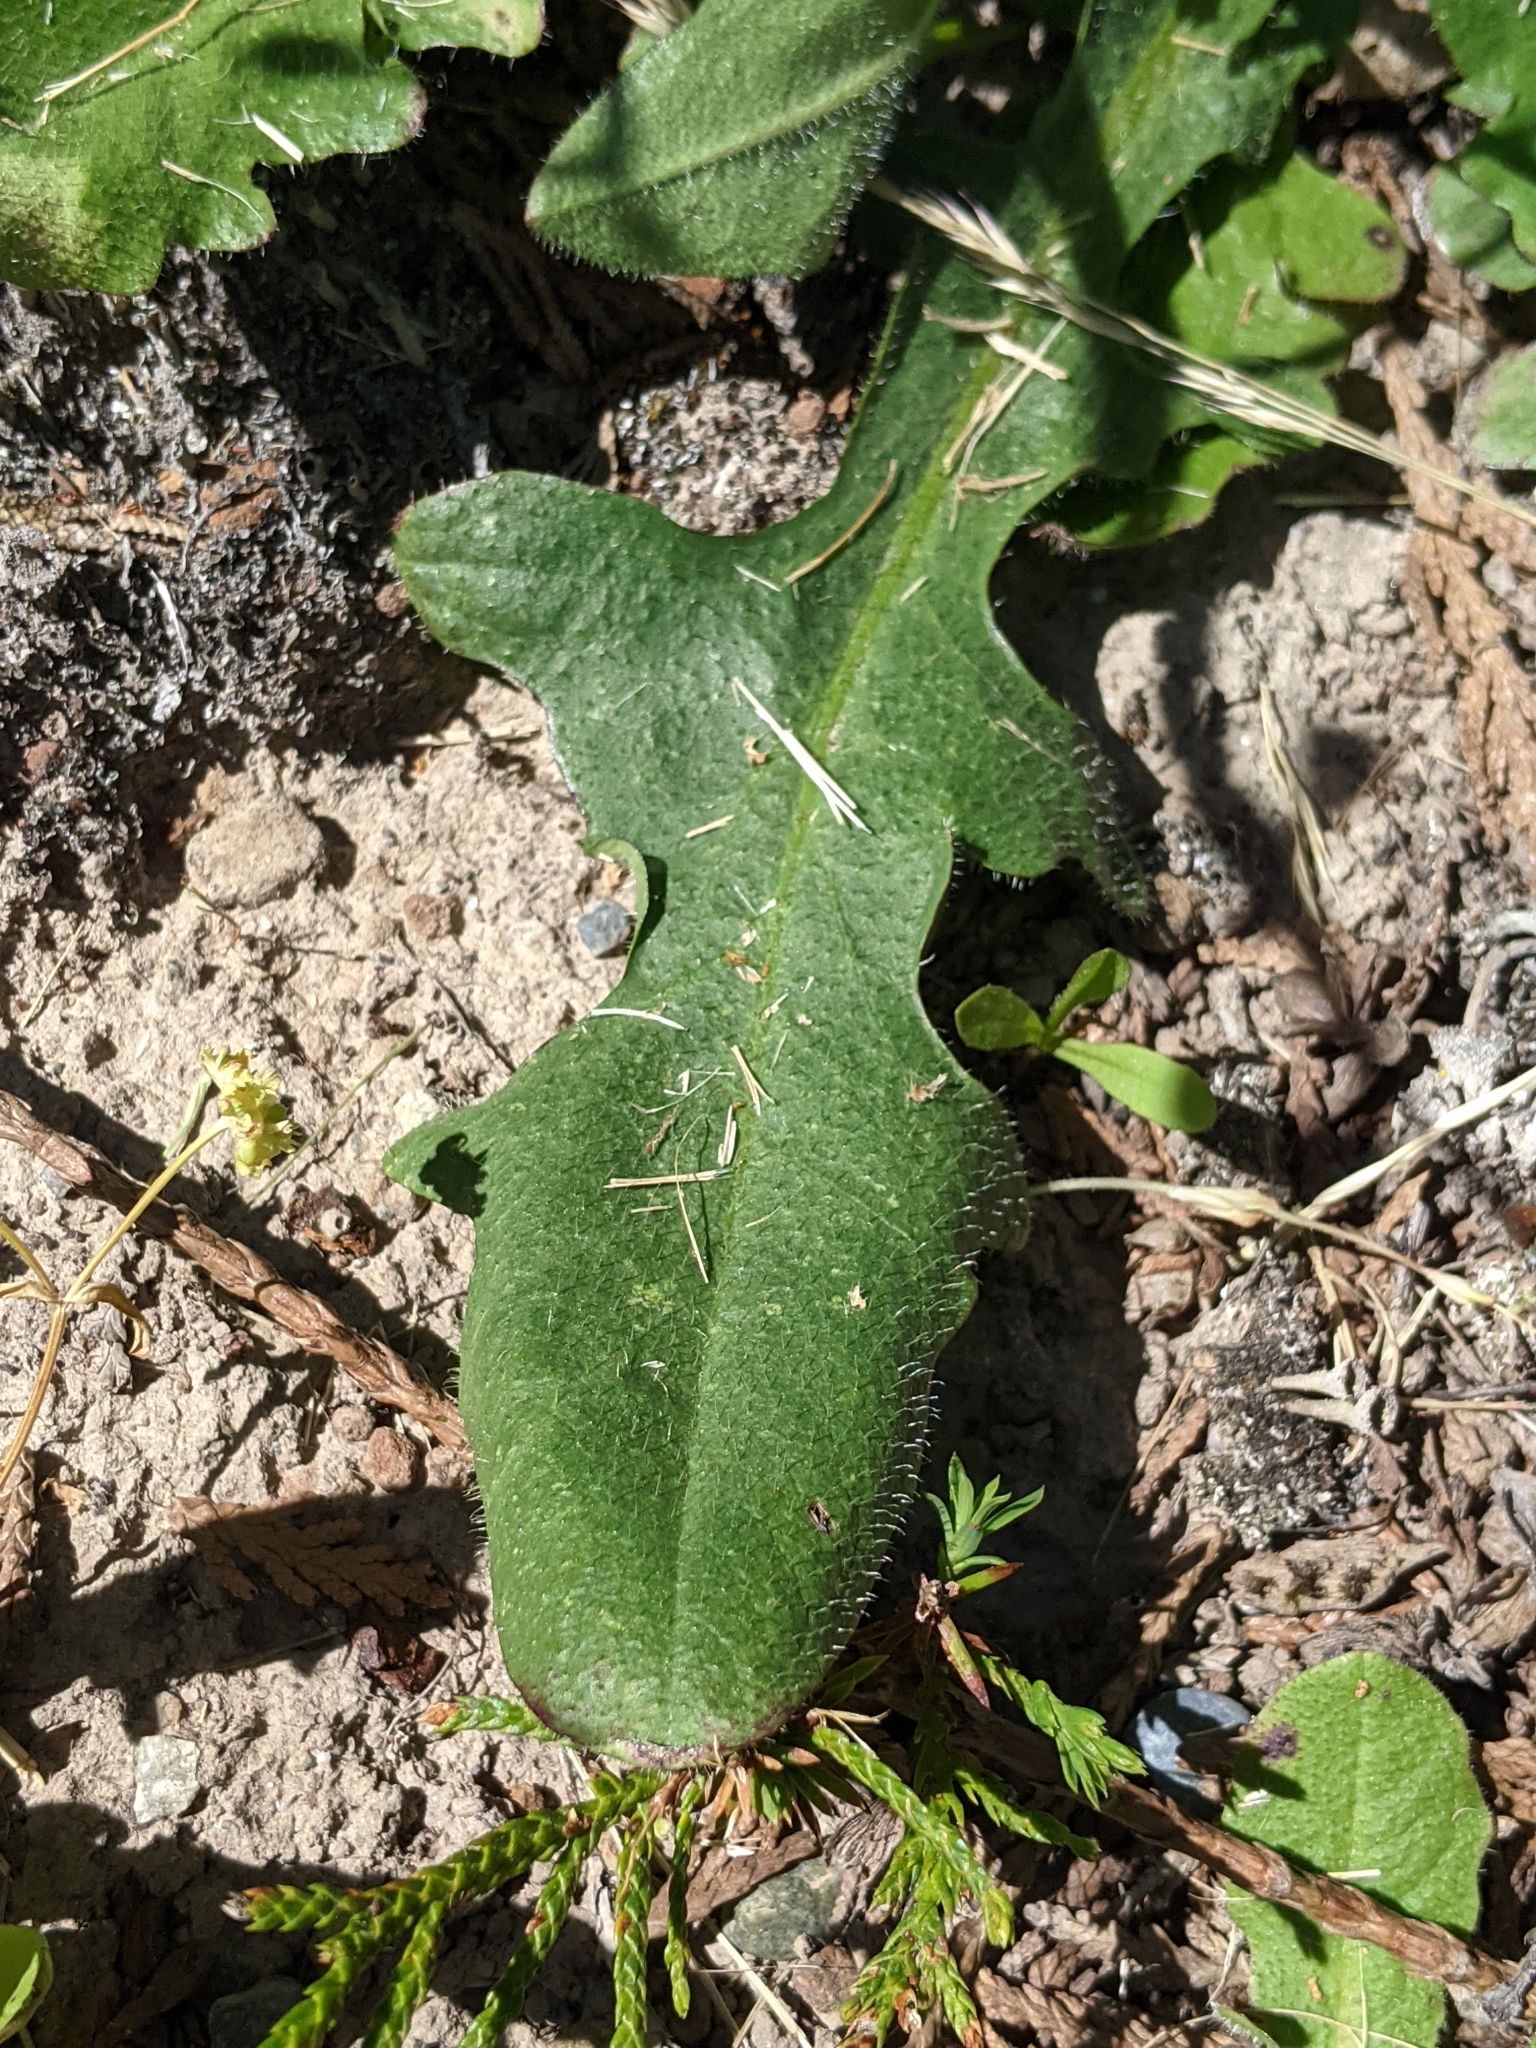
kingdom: Plantae
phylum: Tracheophyta
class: Magnoliopsida
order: Asterales
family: Asteraceae
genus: Hypochaeris
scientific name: Hypochaeris radicata
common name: Flatweed
